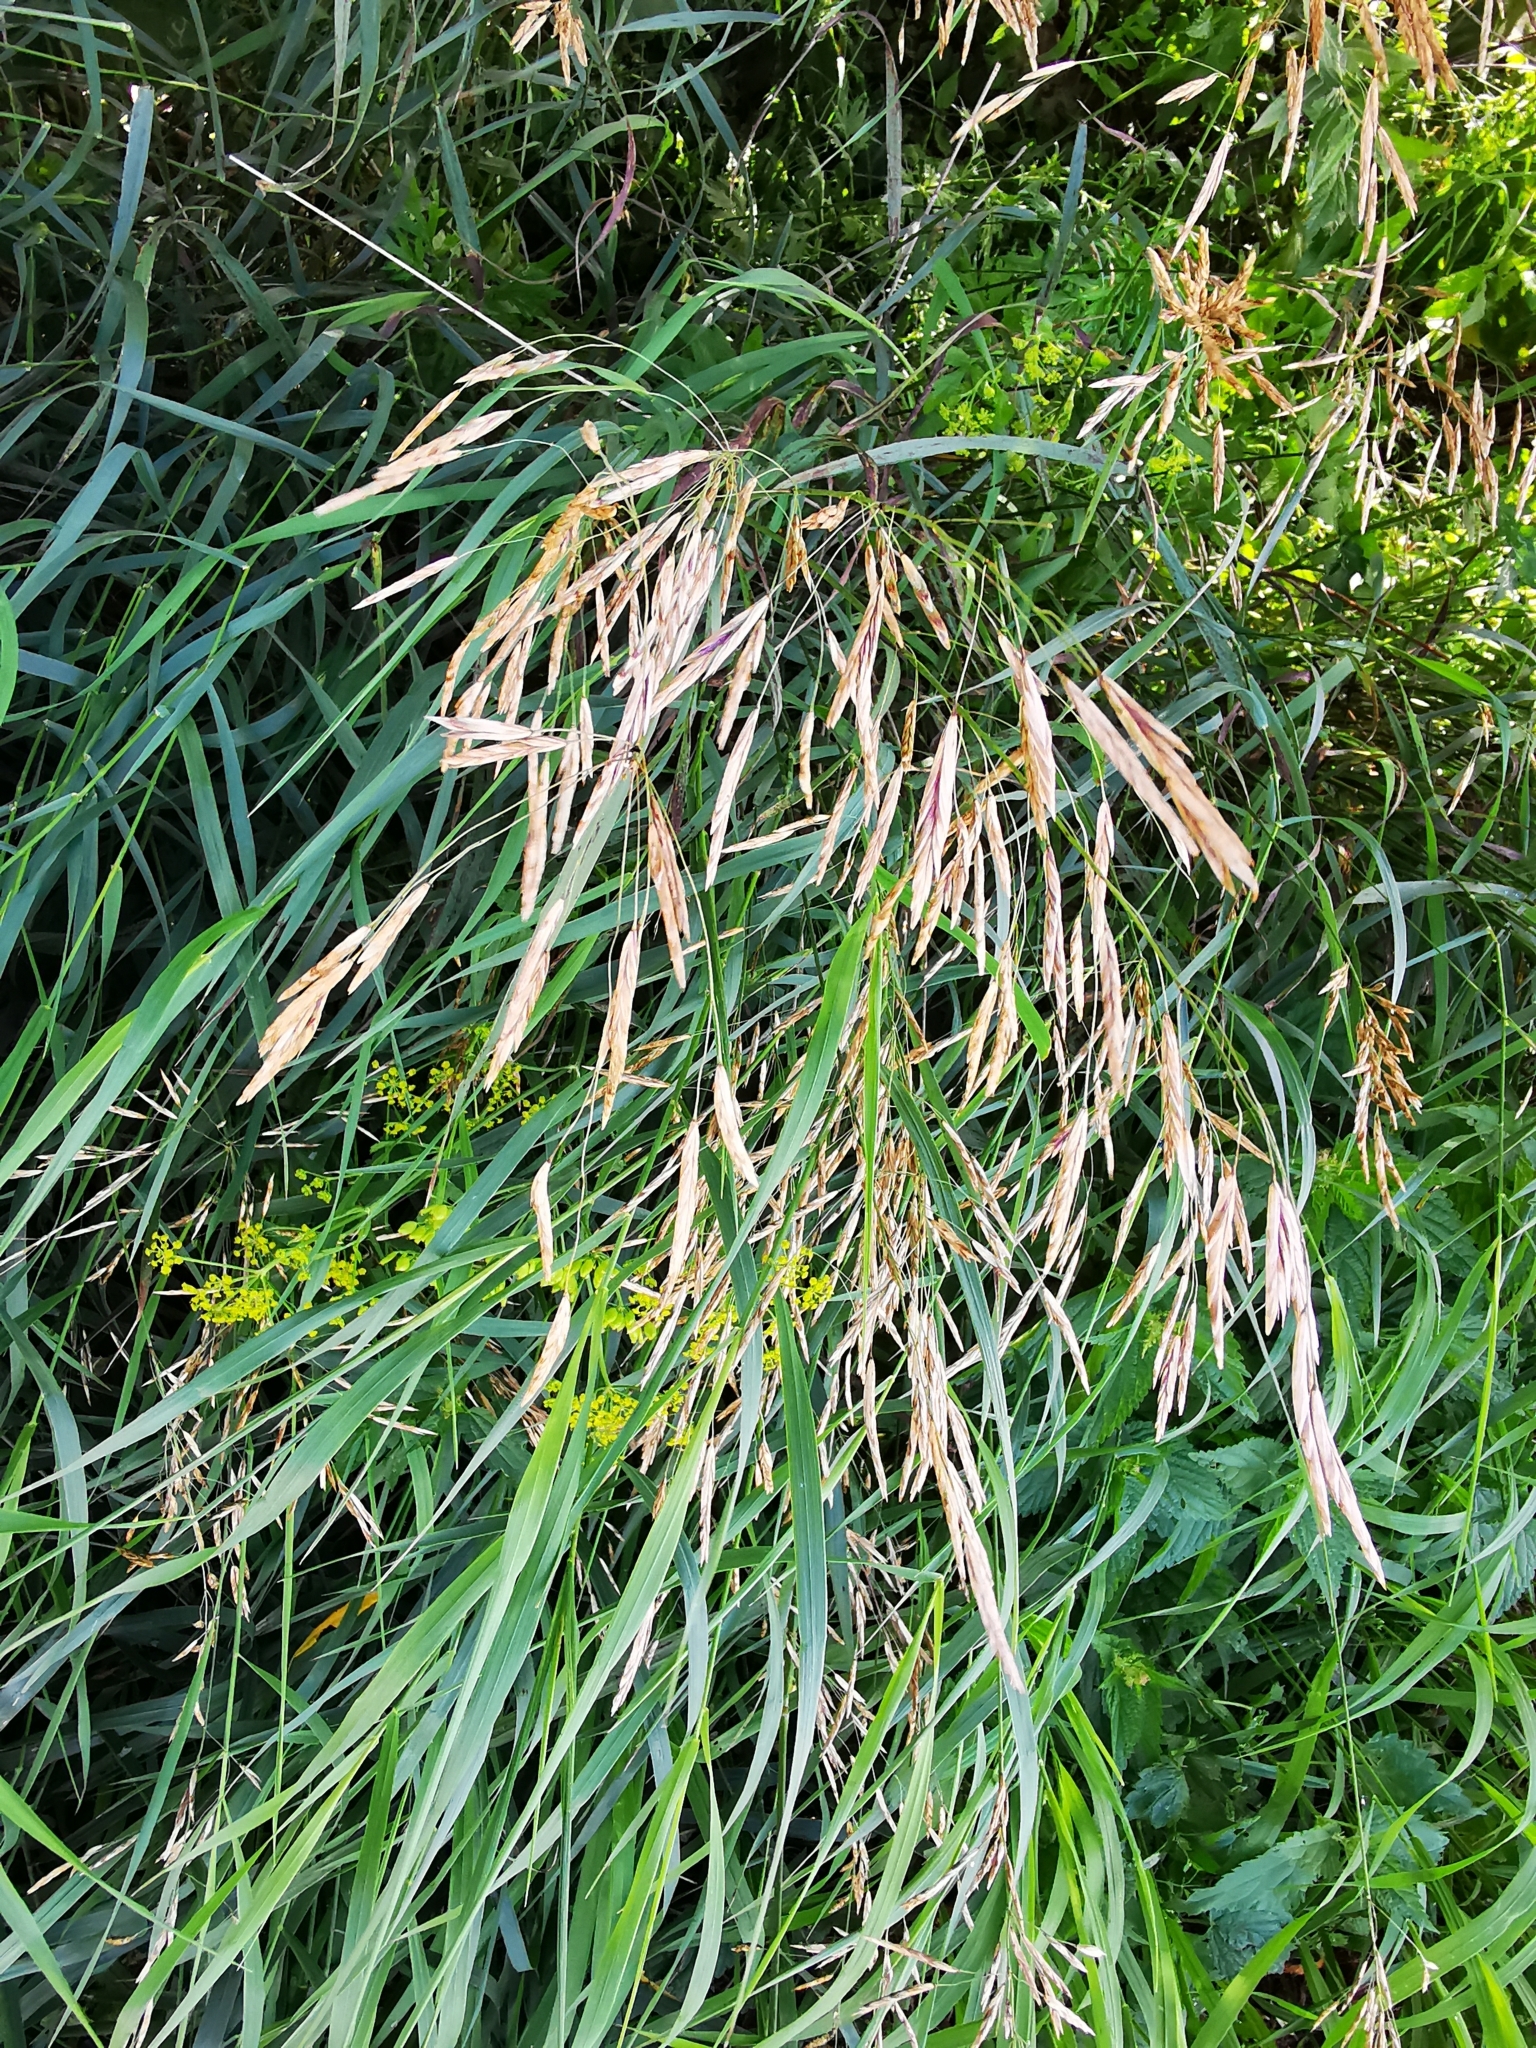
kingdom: Plantae
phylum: Tracheophyta
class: Liliopsida
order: Poales
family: Poaceae
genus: Bromus
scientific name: Bromus inermis
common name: Smooth brome
